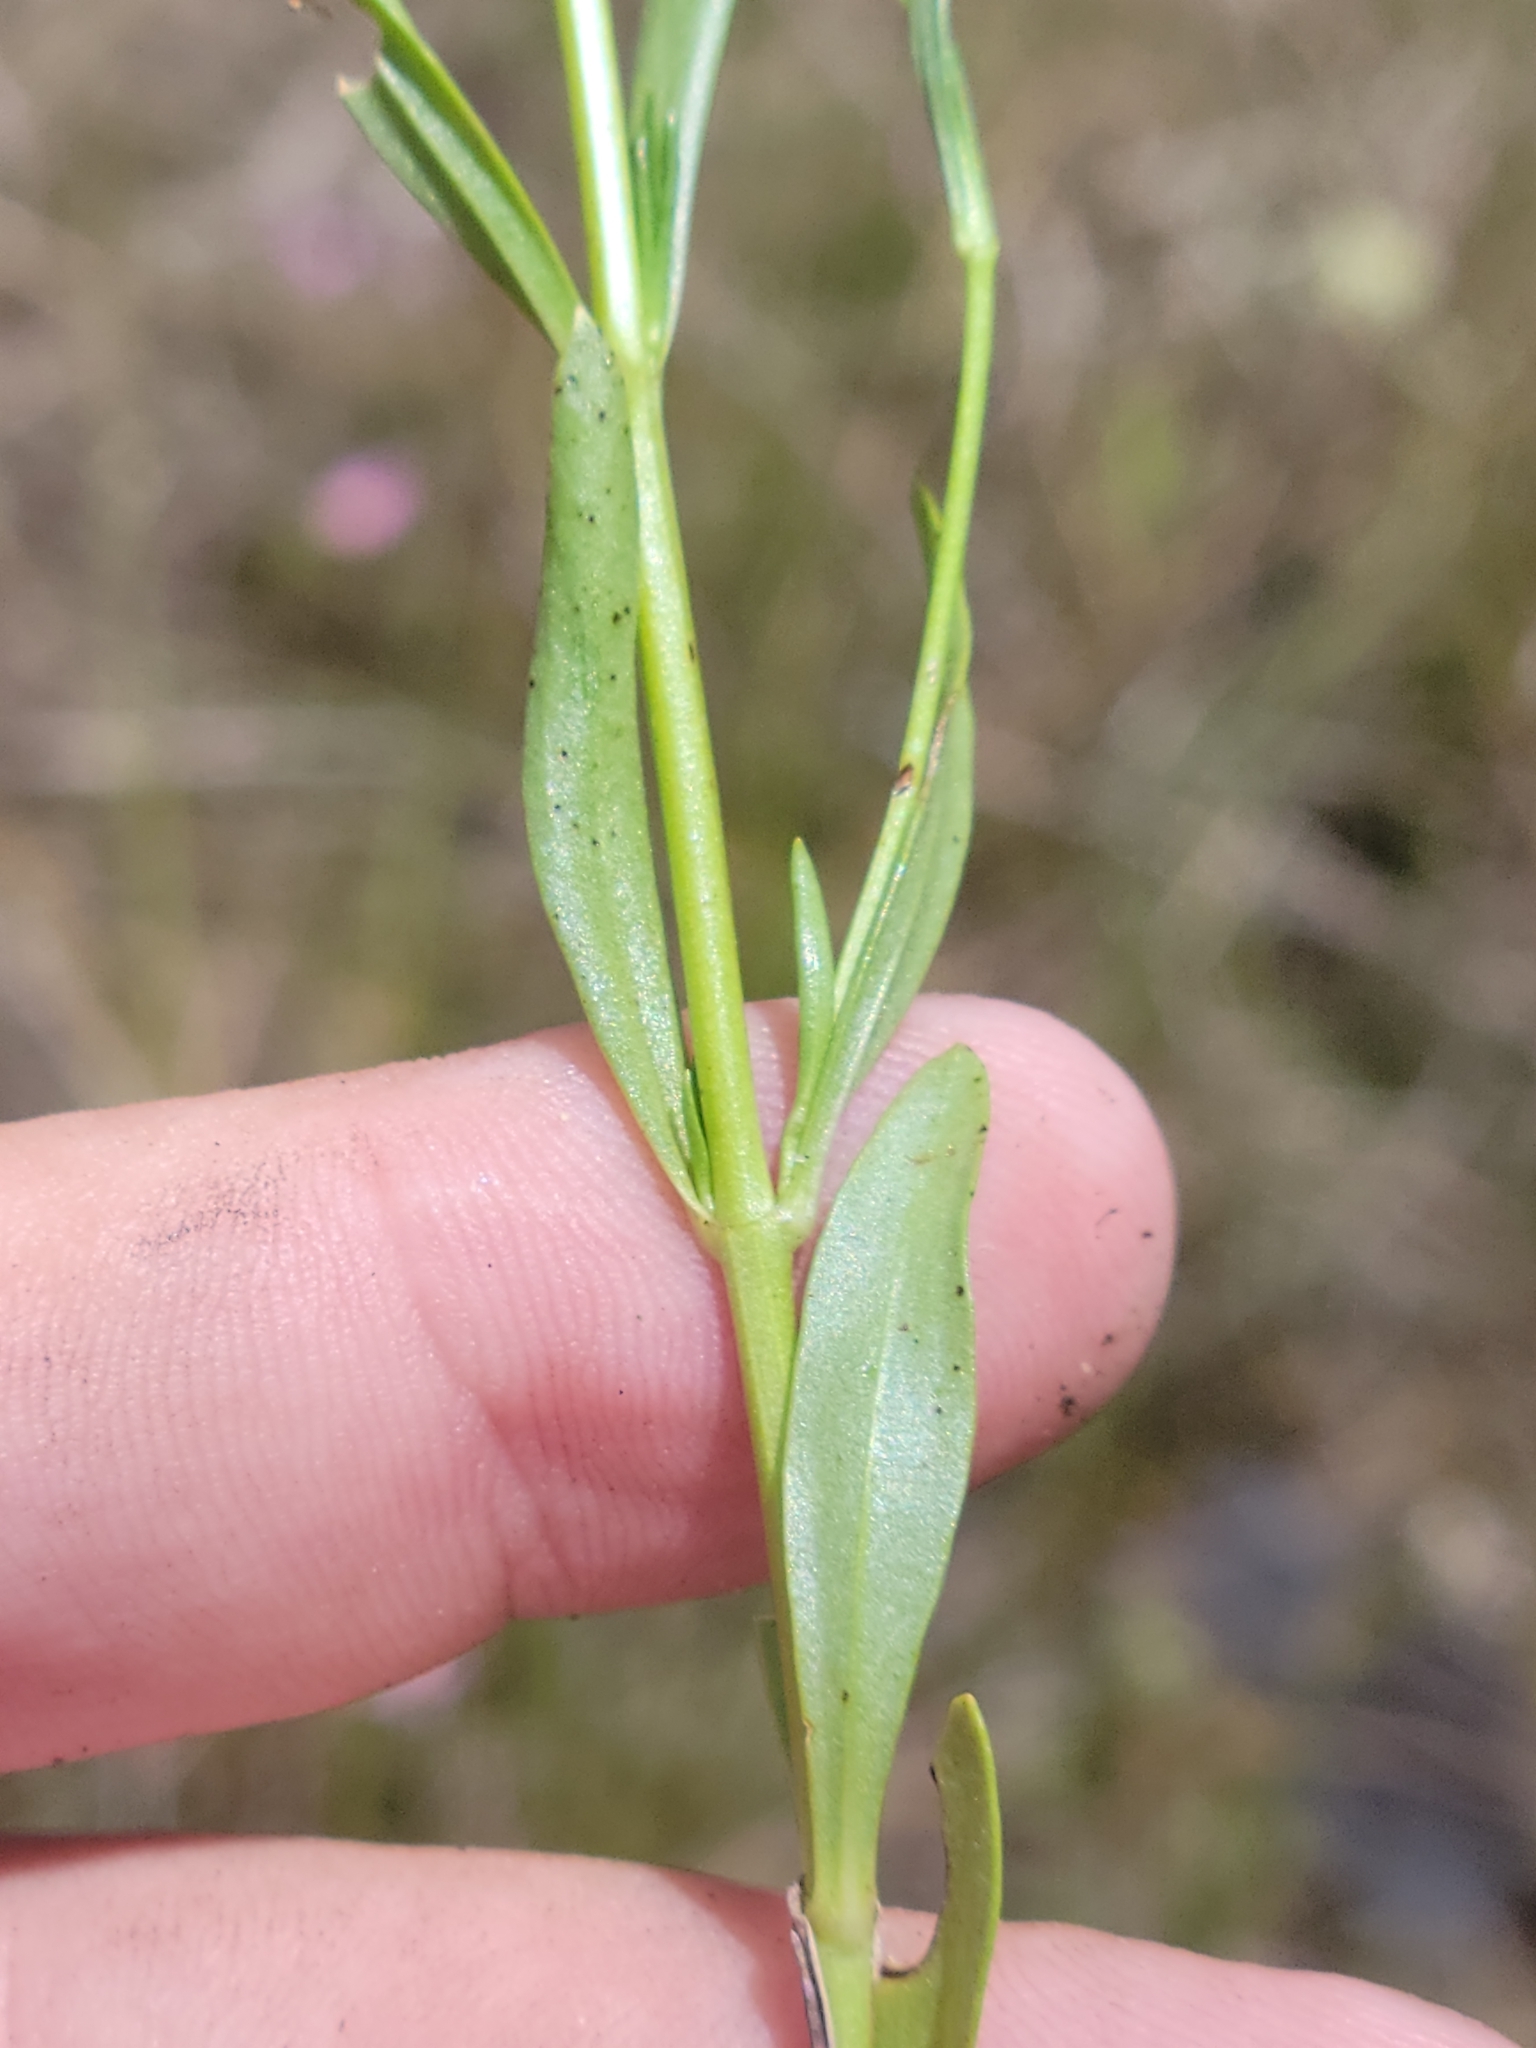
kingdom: Plantae
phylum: Tracheophyta
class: Magnoliopsida
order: Gentianales
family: Gentianaceae
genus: Sabatia
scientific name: Sabatia stellaris
